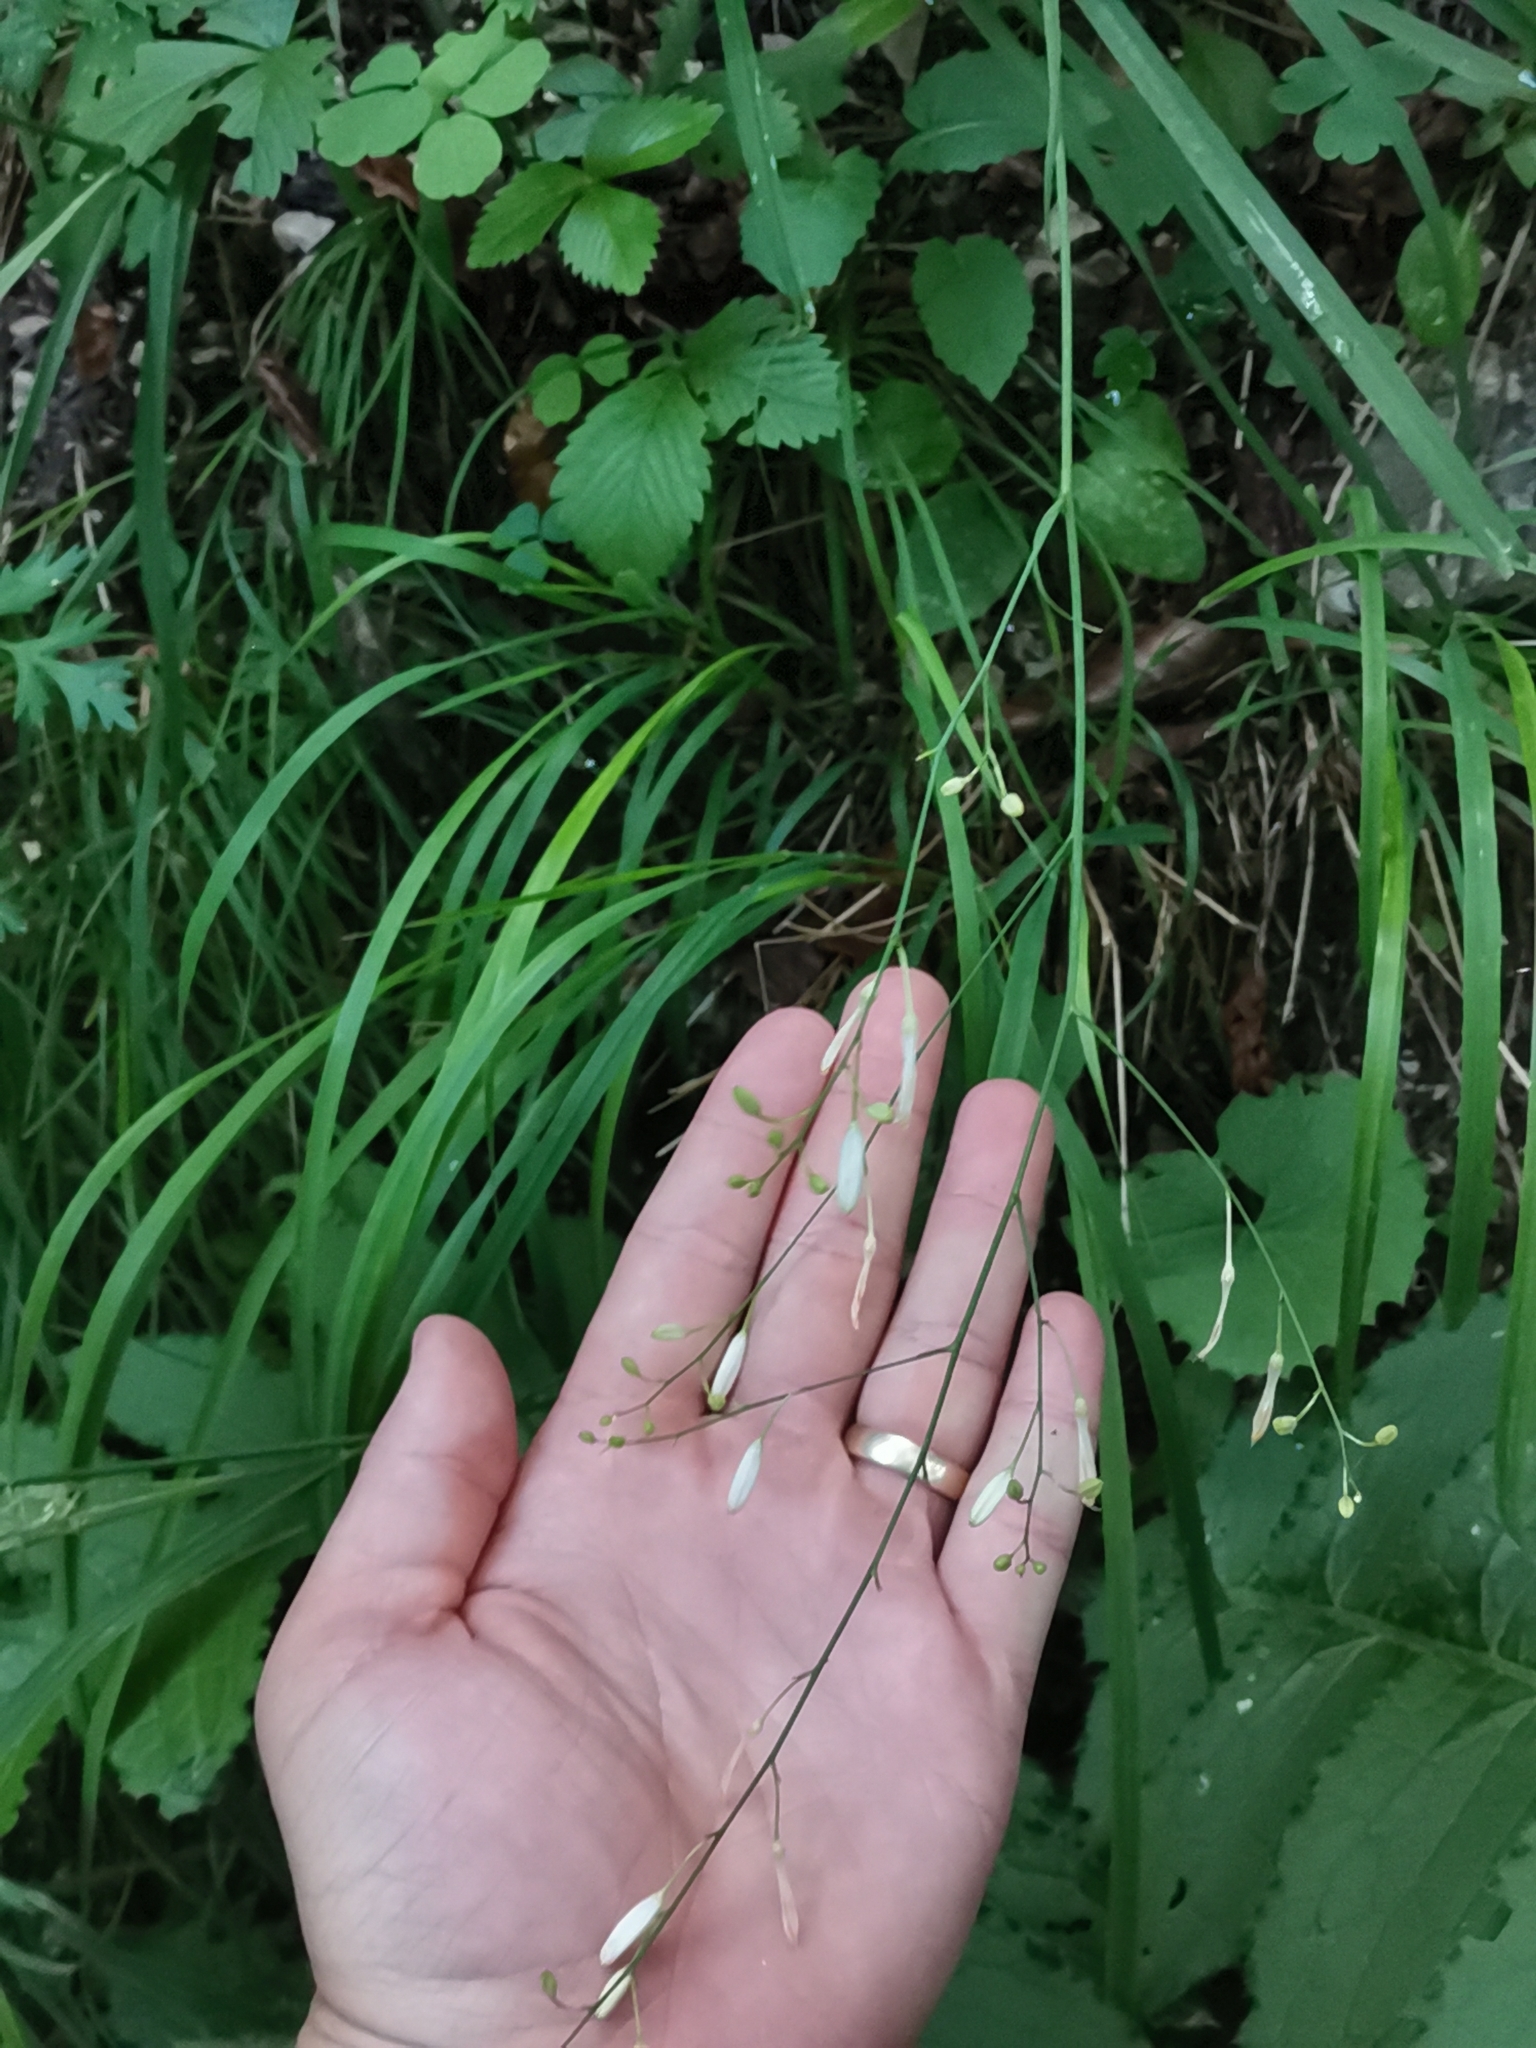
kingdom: Plantae
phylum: Tracheophyta
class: Liliopsida
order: Asparagales
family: Asparagaceae
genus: Anthericum
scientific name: Anthericum ramosum
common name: Branched st. bernard's-lily
